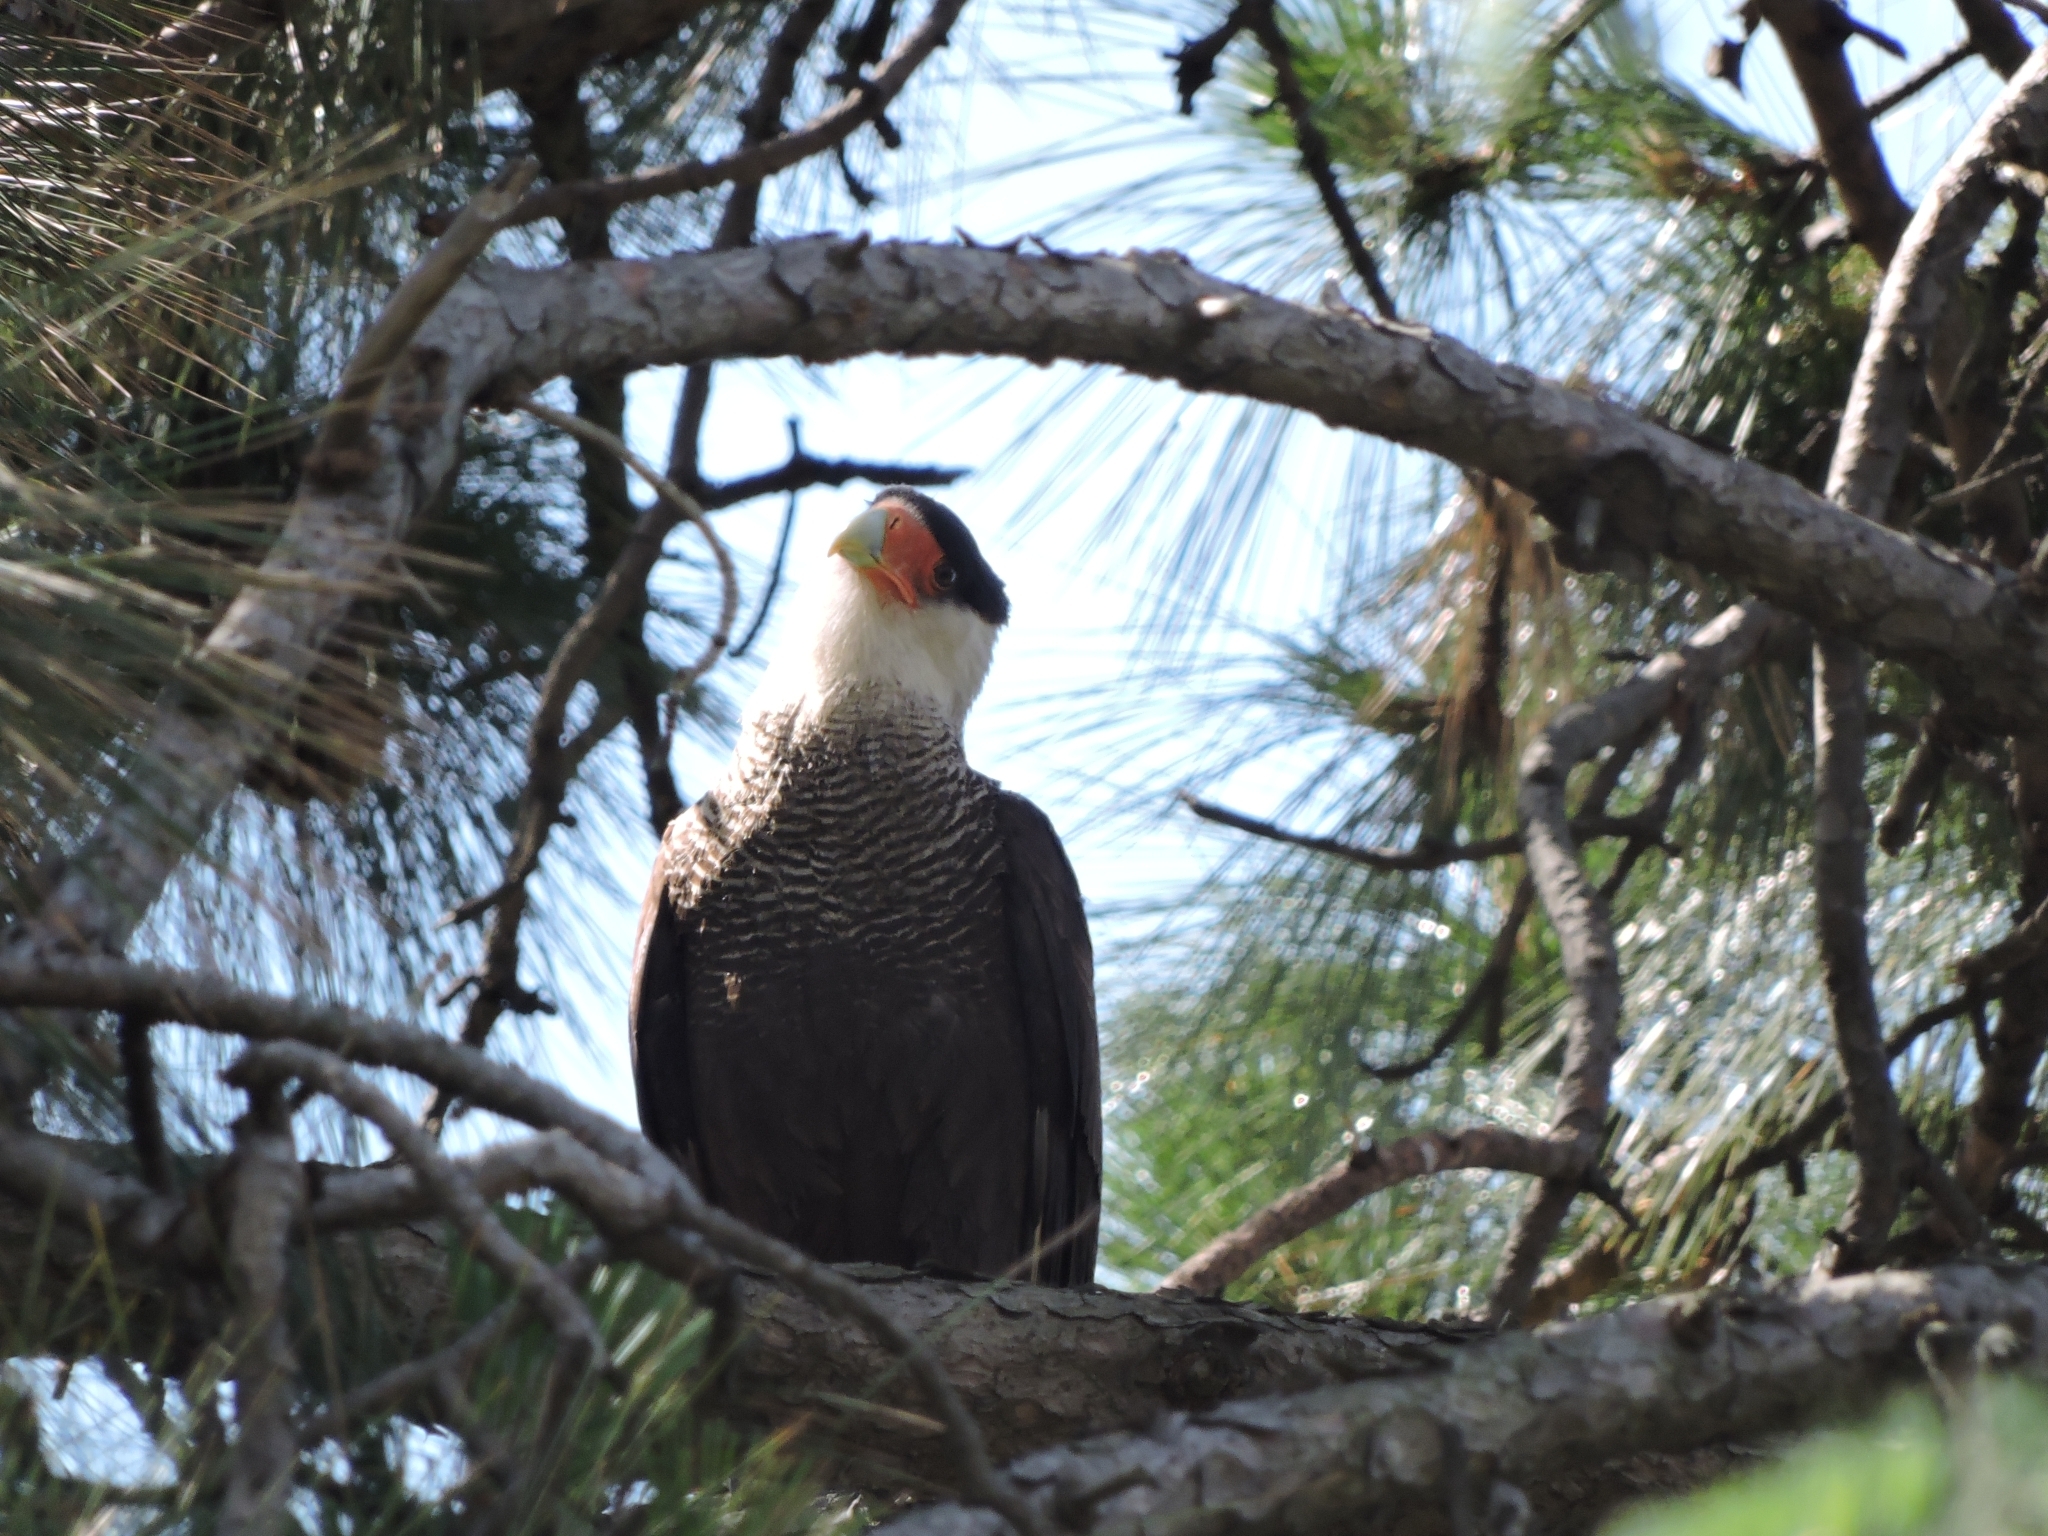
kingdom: Animalia
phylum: Chordata
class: Aves
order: Falconiformes
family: Falconidae
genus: Caracara
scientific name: Caracara plancus
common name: Southern caracara
